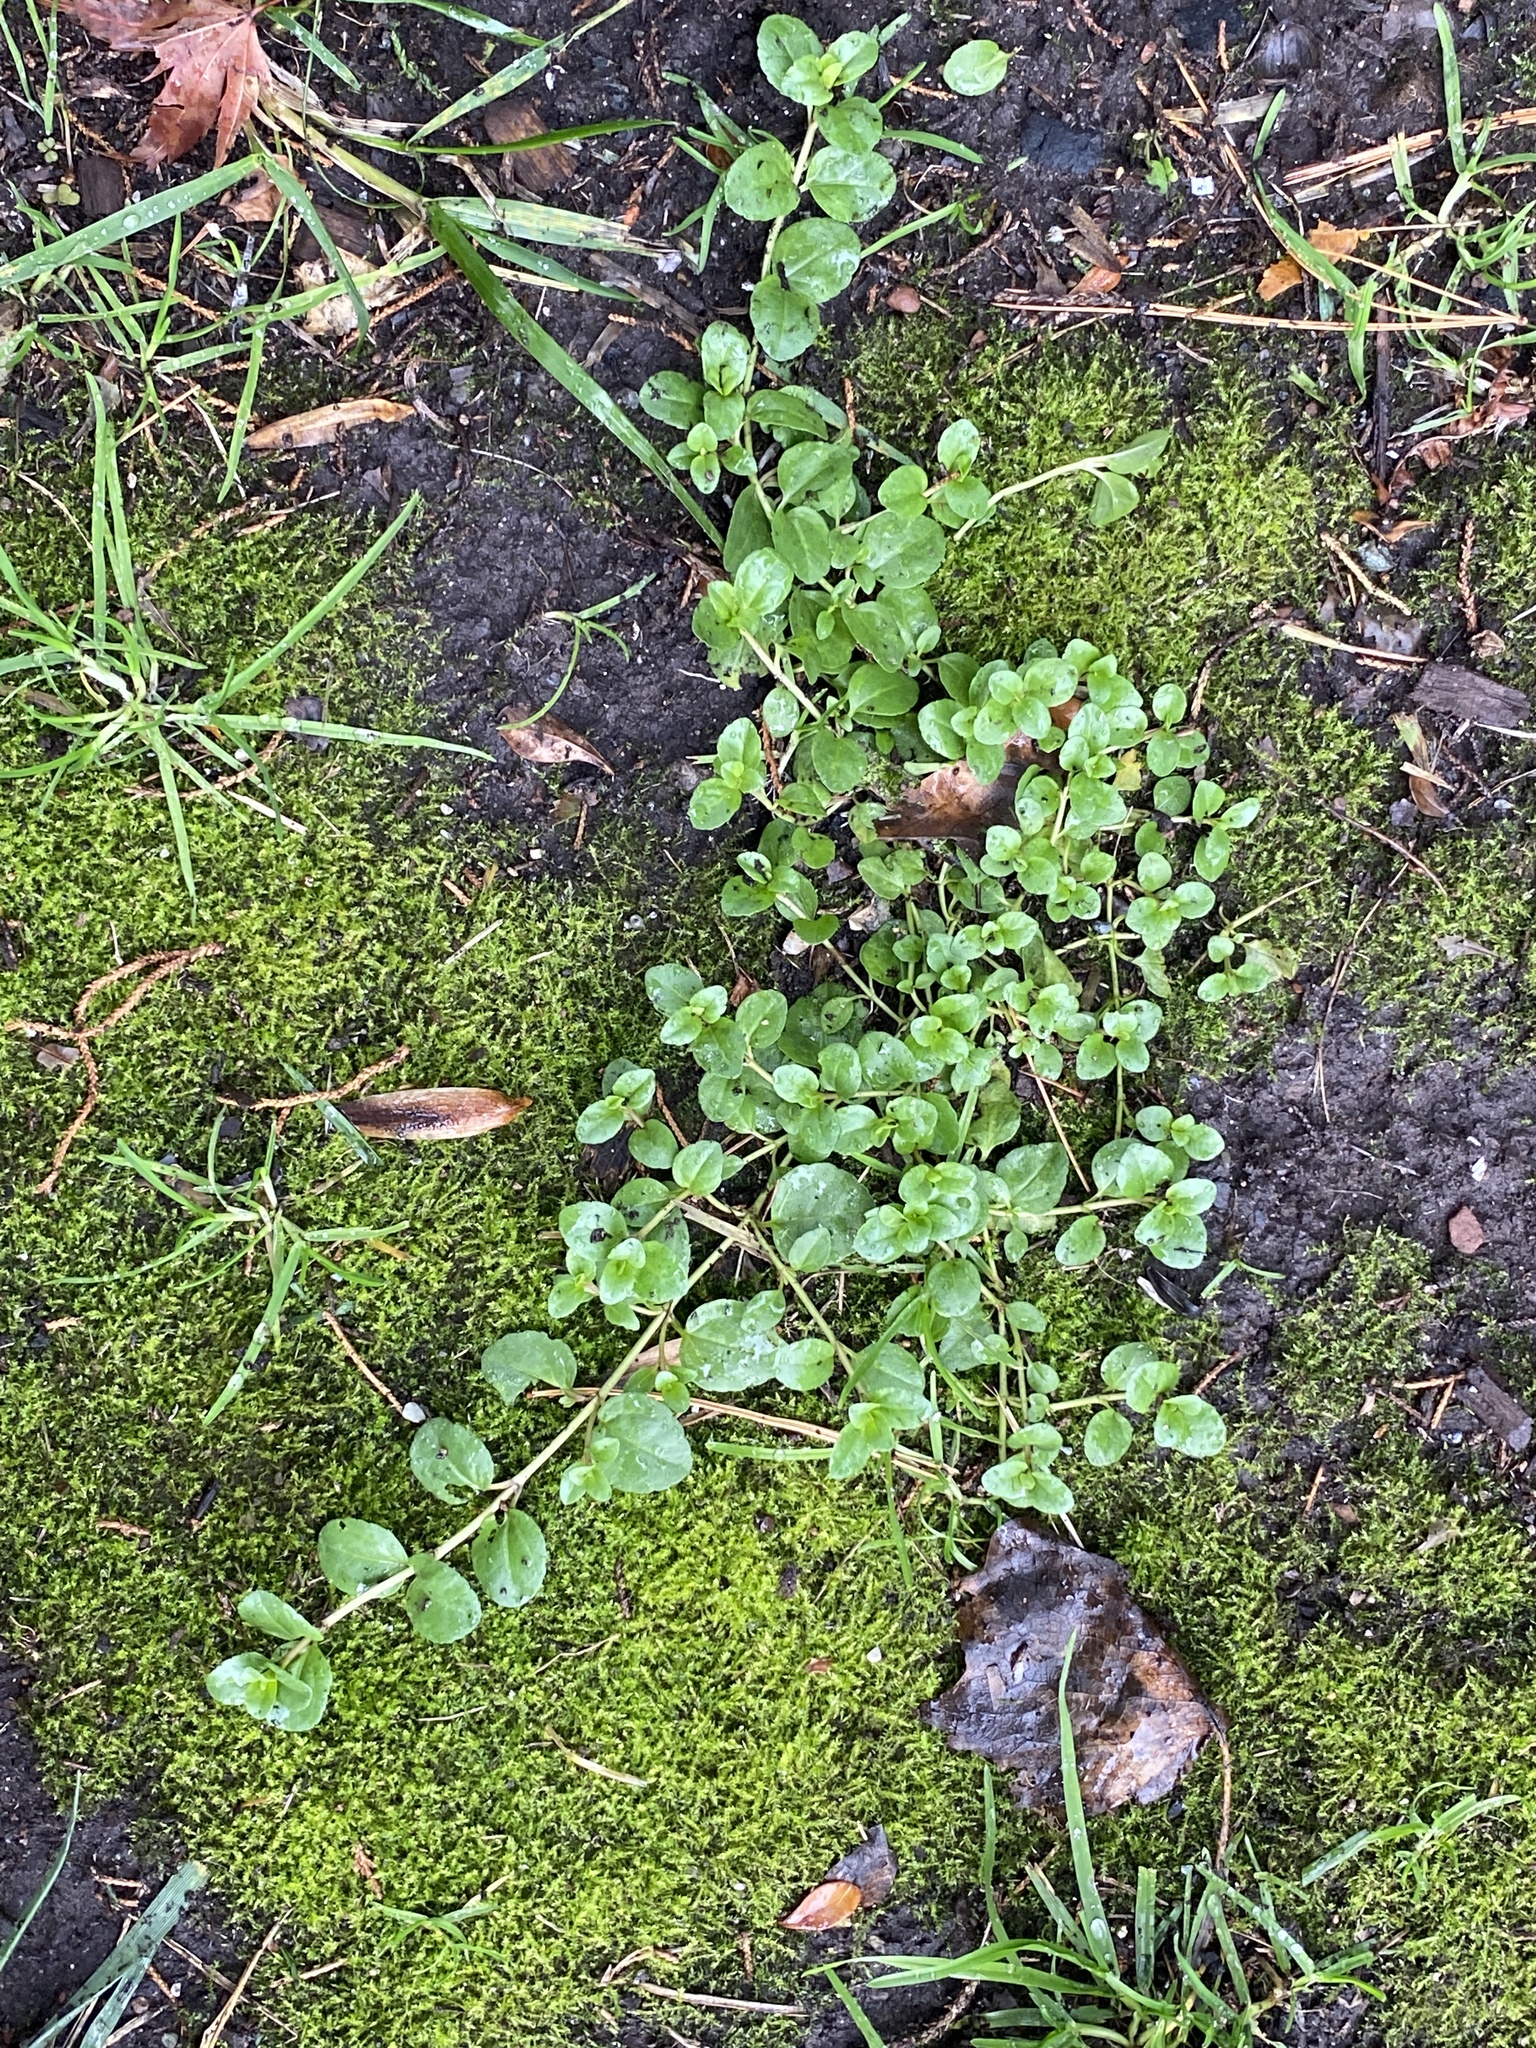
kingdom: Plantae
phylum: Tracheophyta
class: Magnoliopsida
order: Lamiales
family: Plantaginaceae
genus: Veronica
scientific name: Veronica serpyllifolia
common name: Thyme-leaved speedwell
